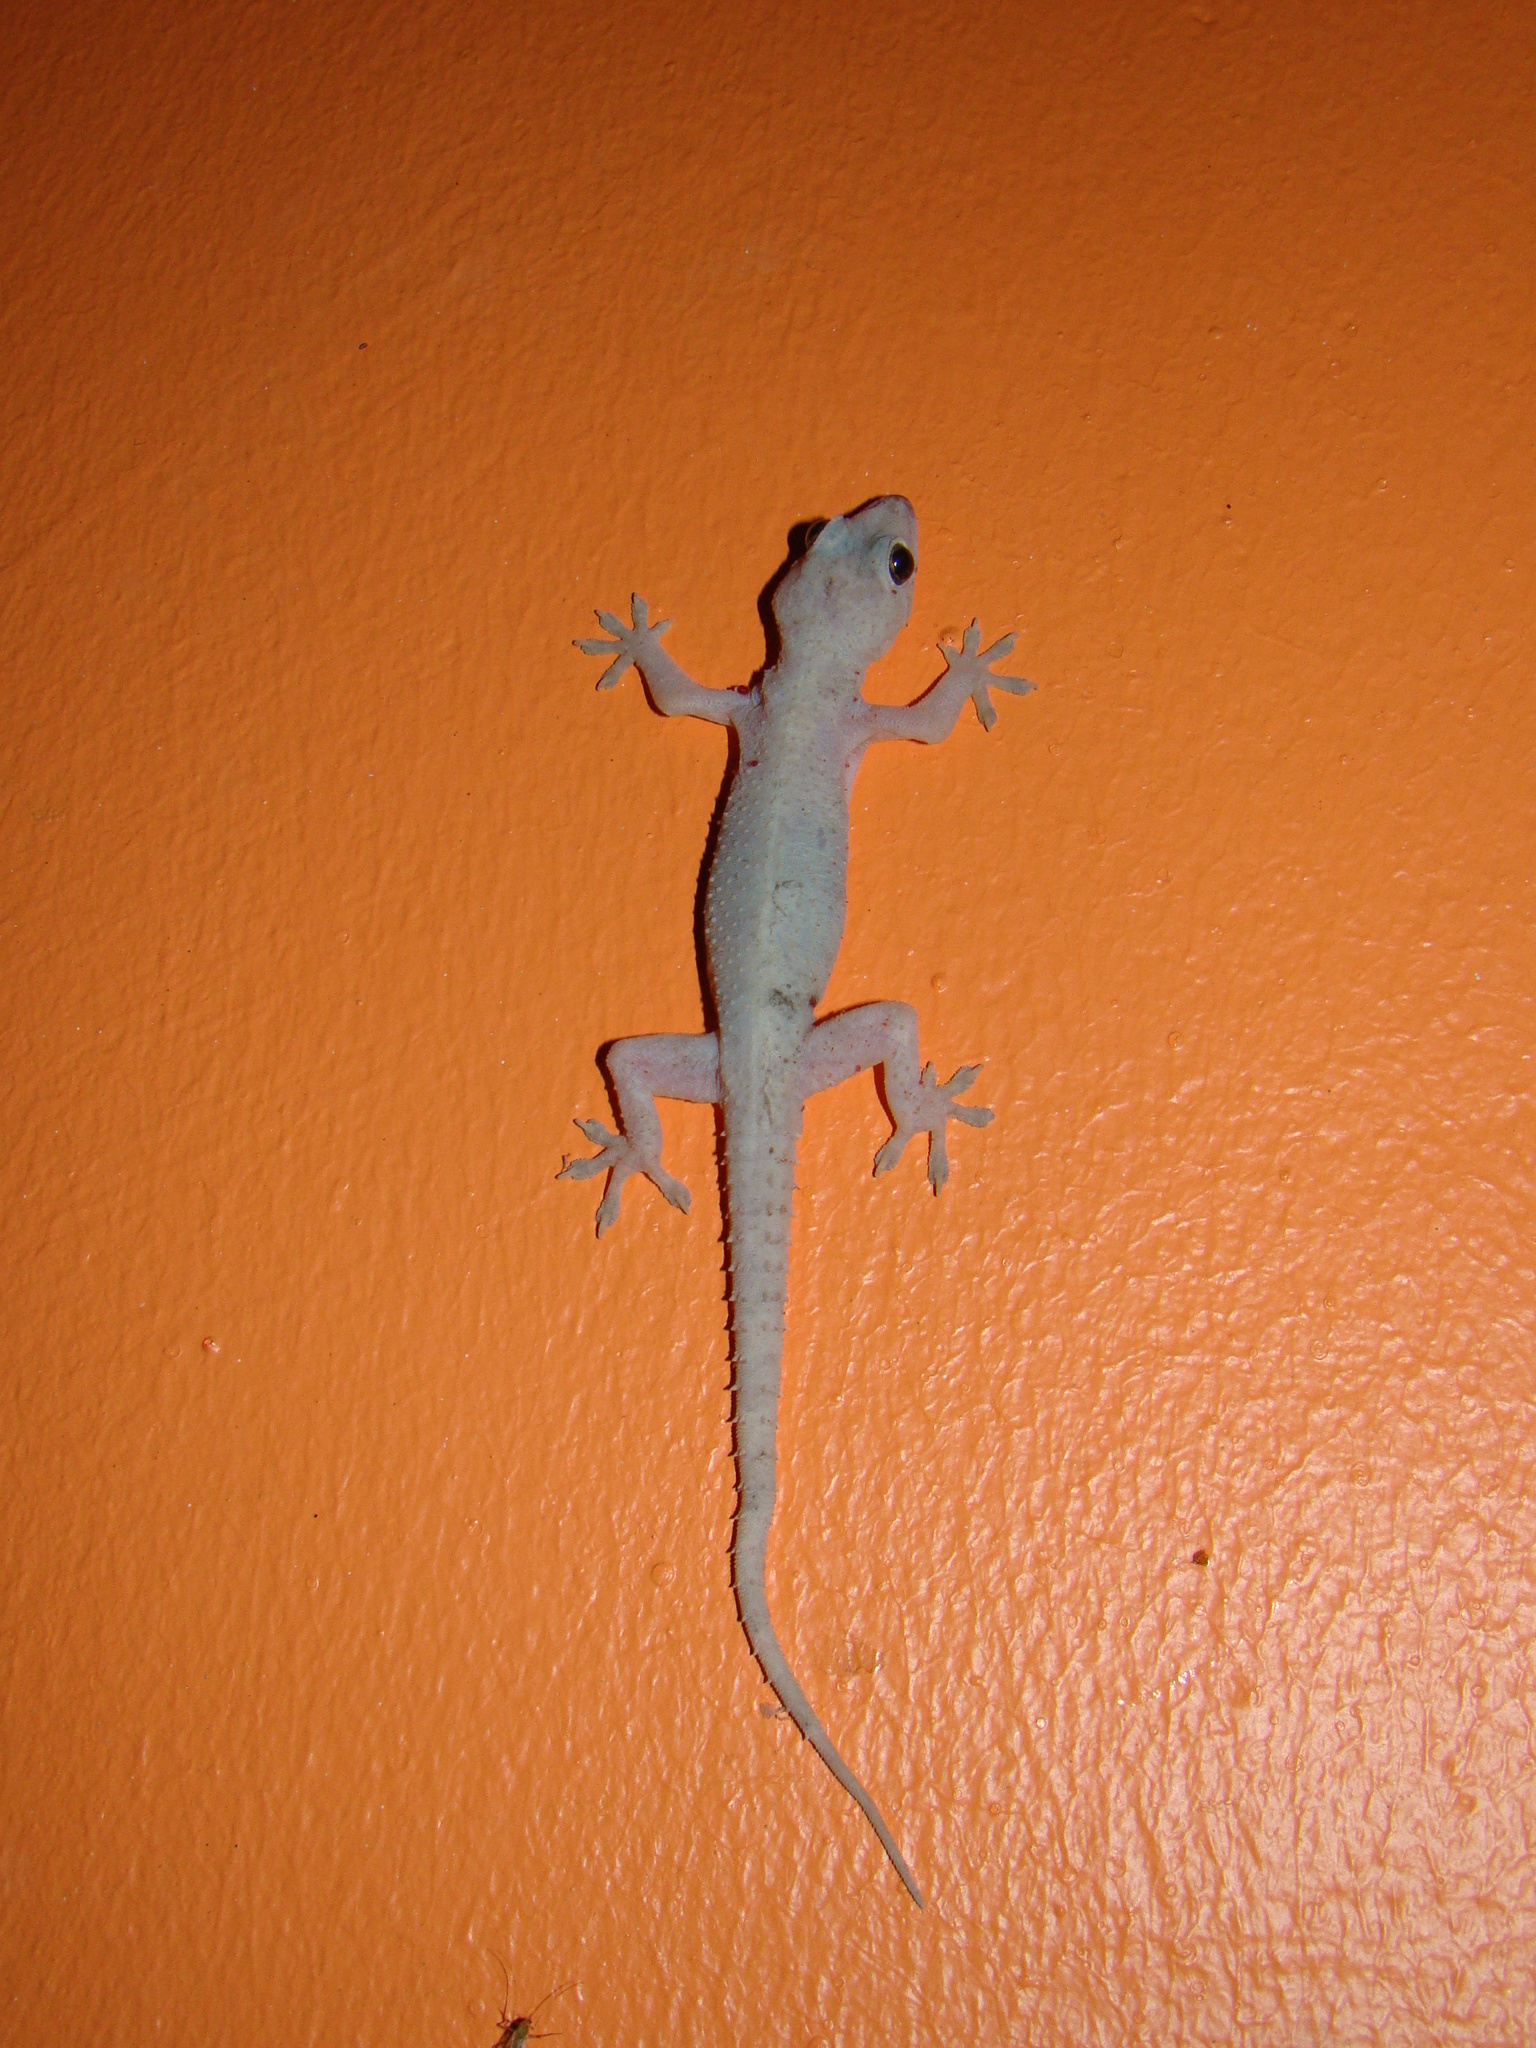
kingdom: Animalia
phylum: Chordata
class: Squamata
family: Gekkonidae
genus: Hemidactylus
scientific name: Hemidactylus mabouia
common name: House gecko
